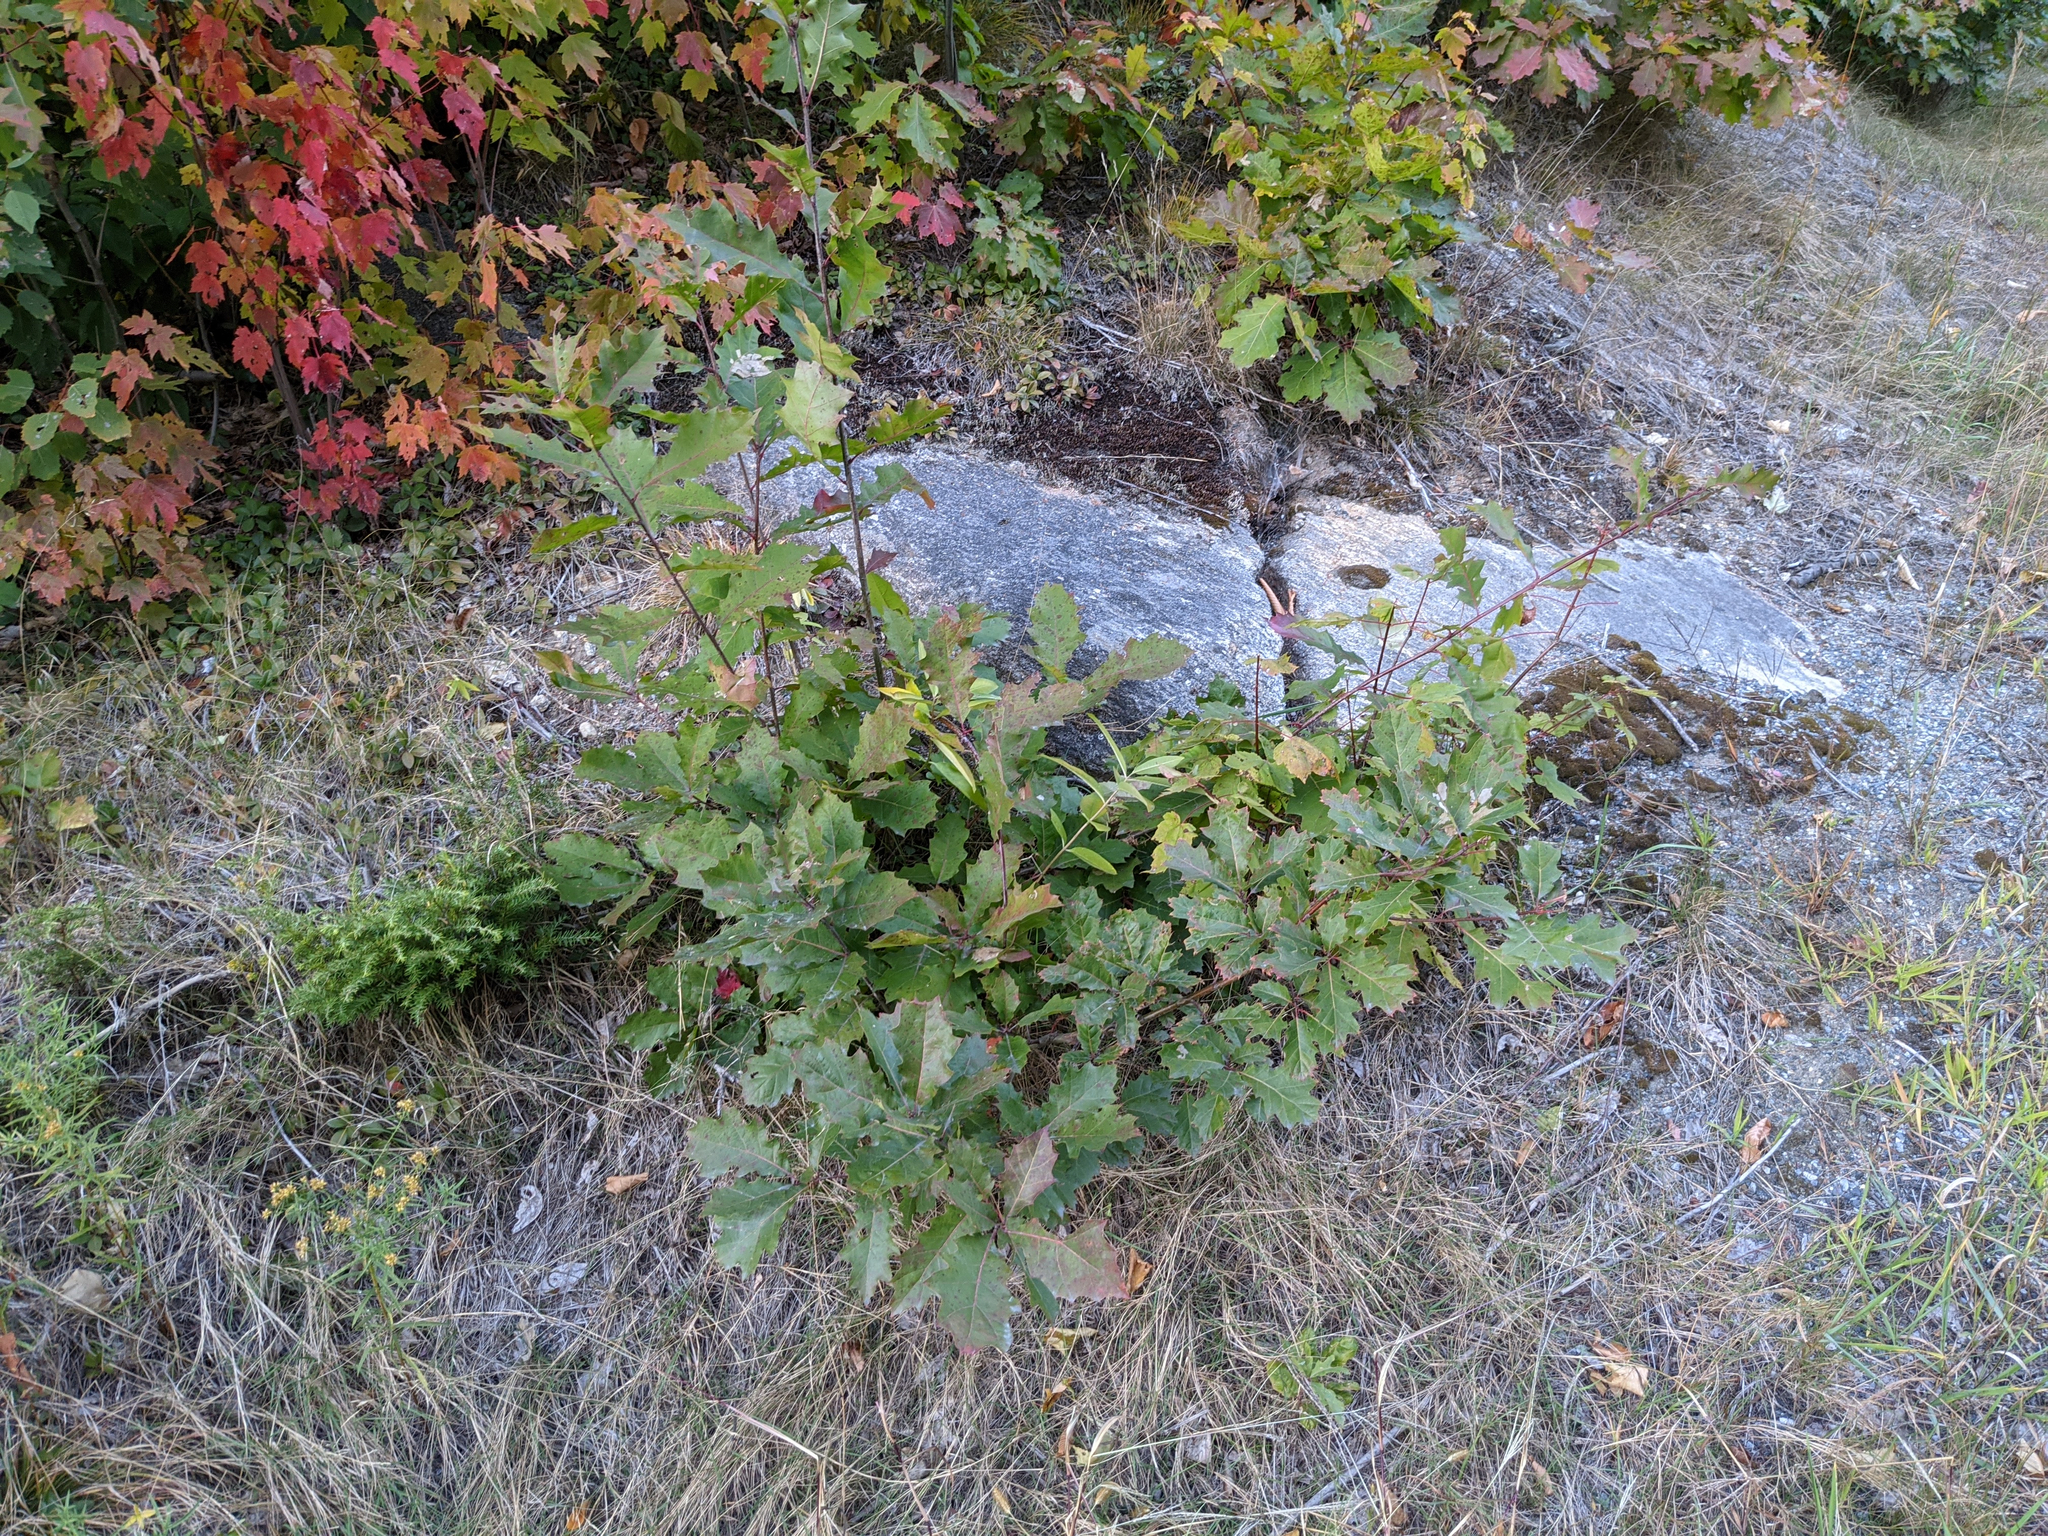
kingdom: Plantae
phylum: Tracheophyta
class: Magnoliopsida
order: Fagales
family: Fagaceae
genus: Quercus
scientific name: Quercus rubra
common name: Red oak
